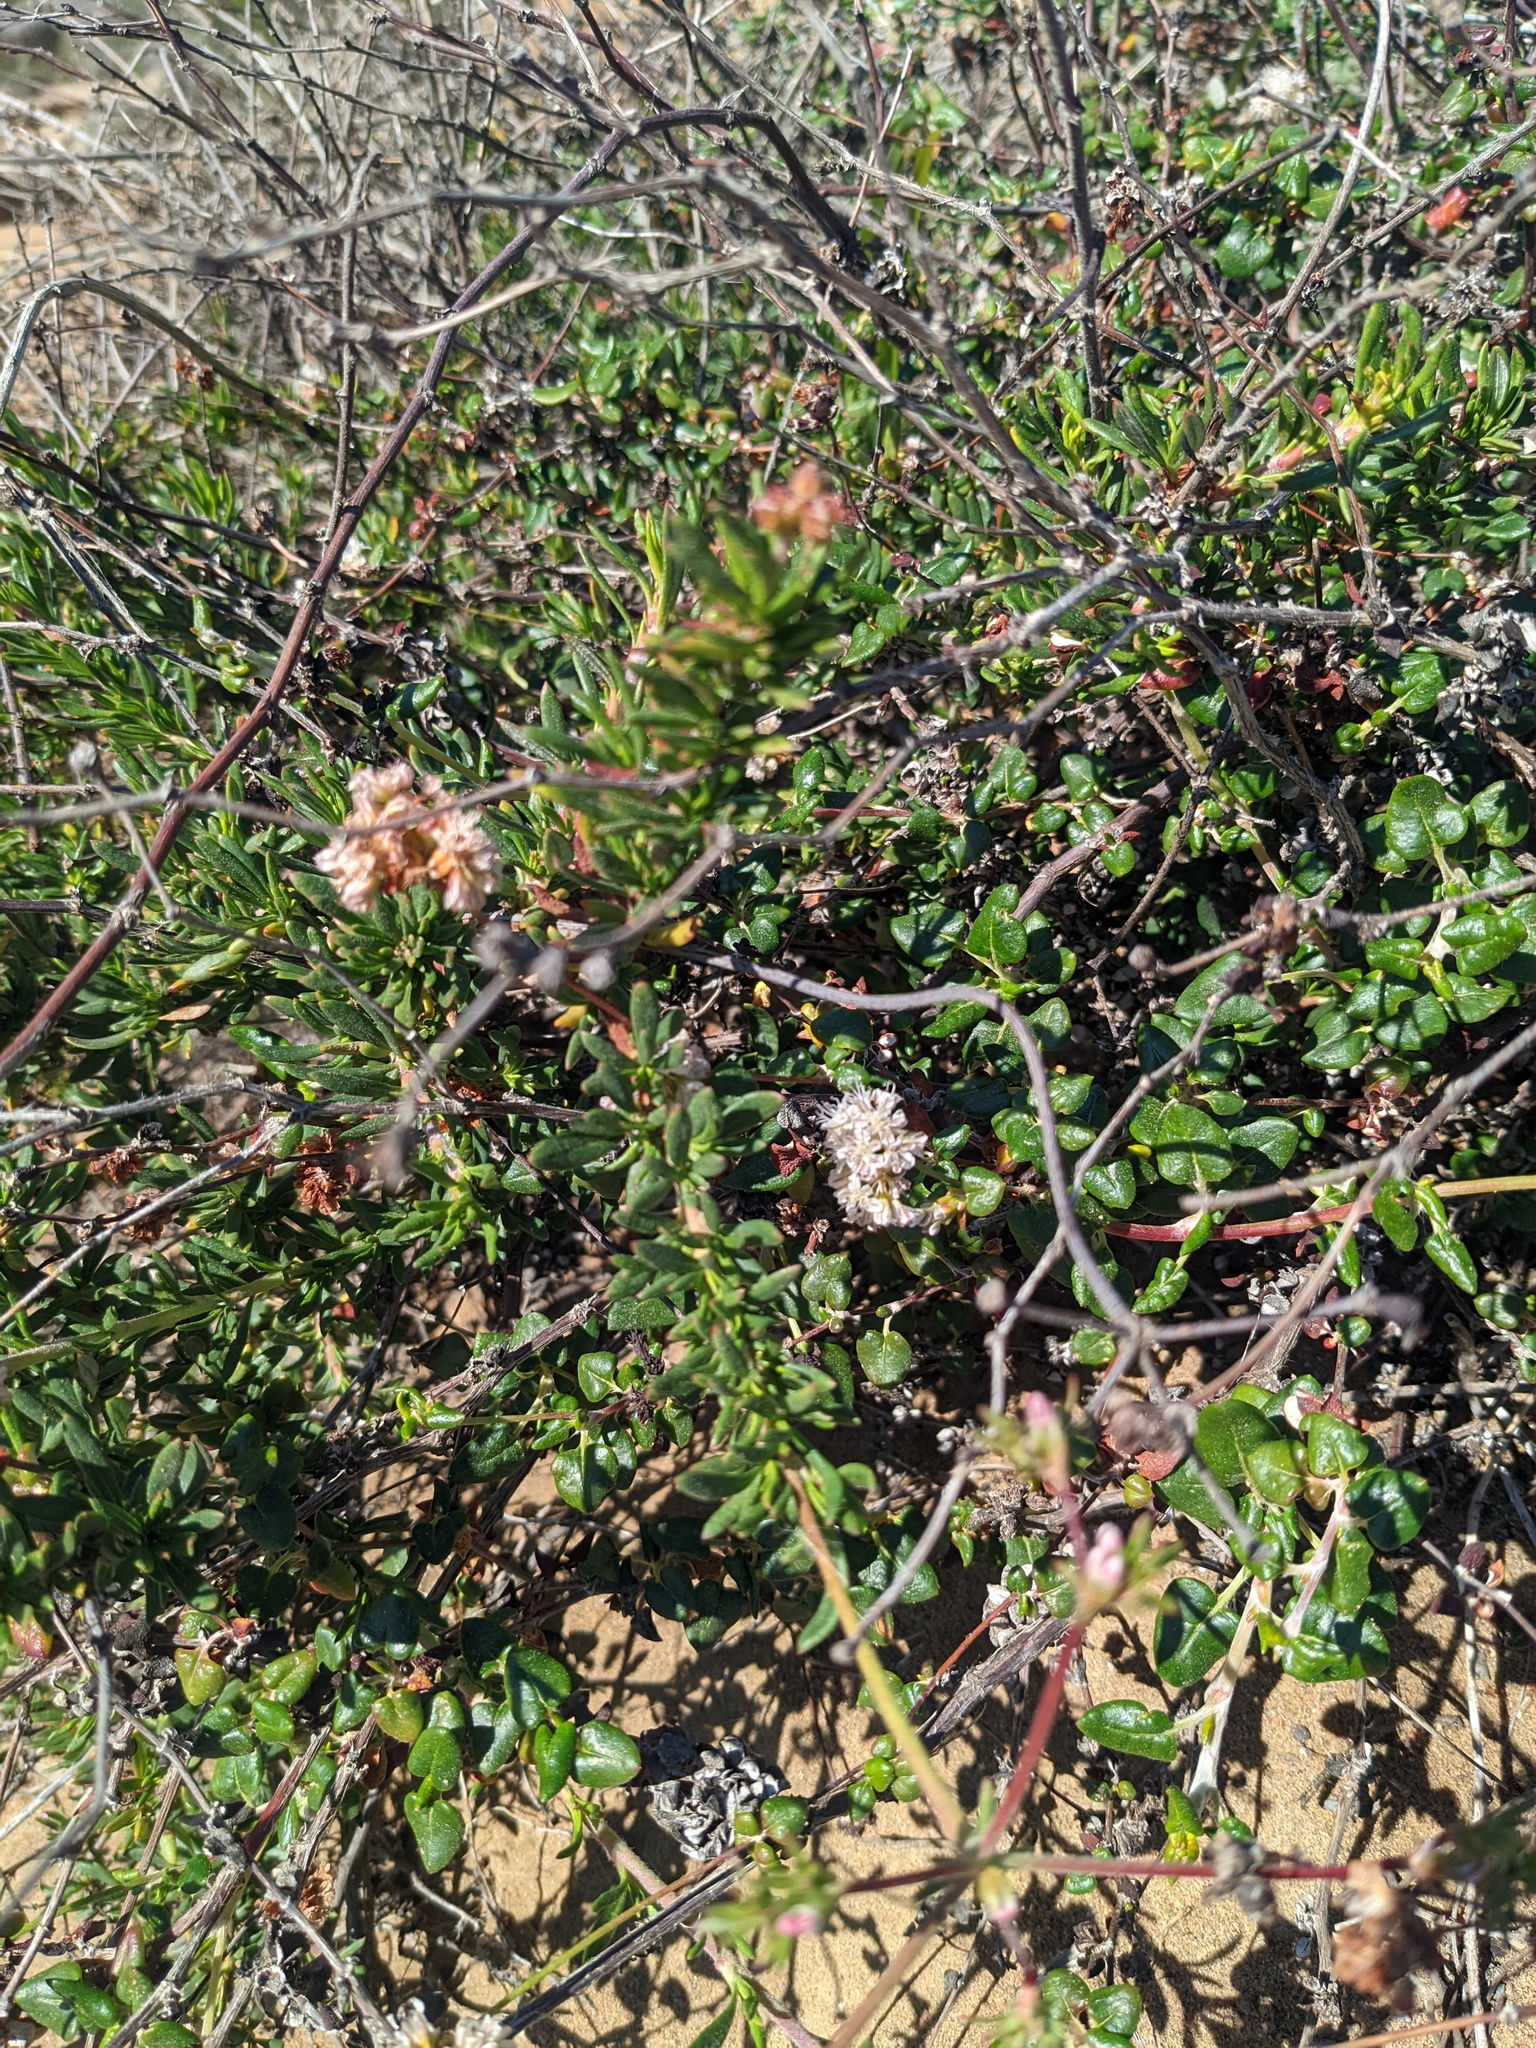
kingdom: Plantae
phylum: Tracheophyta
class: Magnoliopsida
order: Caryophyllales
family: Polygonaceae
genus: Eriogonum
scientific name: Eriogonum fasciculatum
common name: California wild buckwheat
